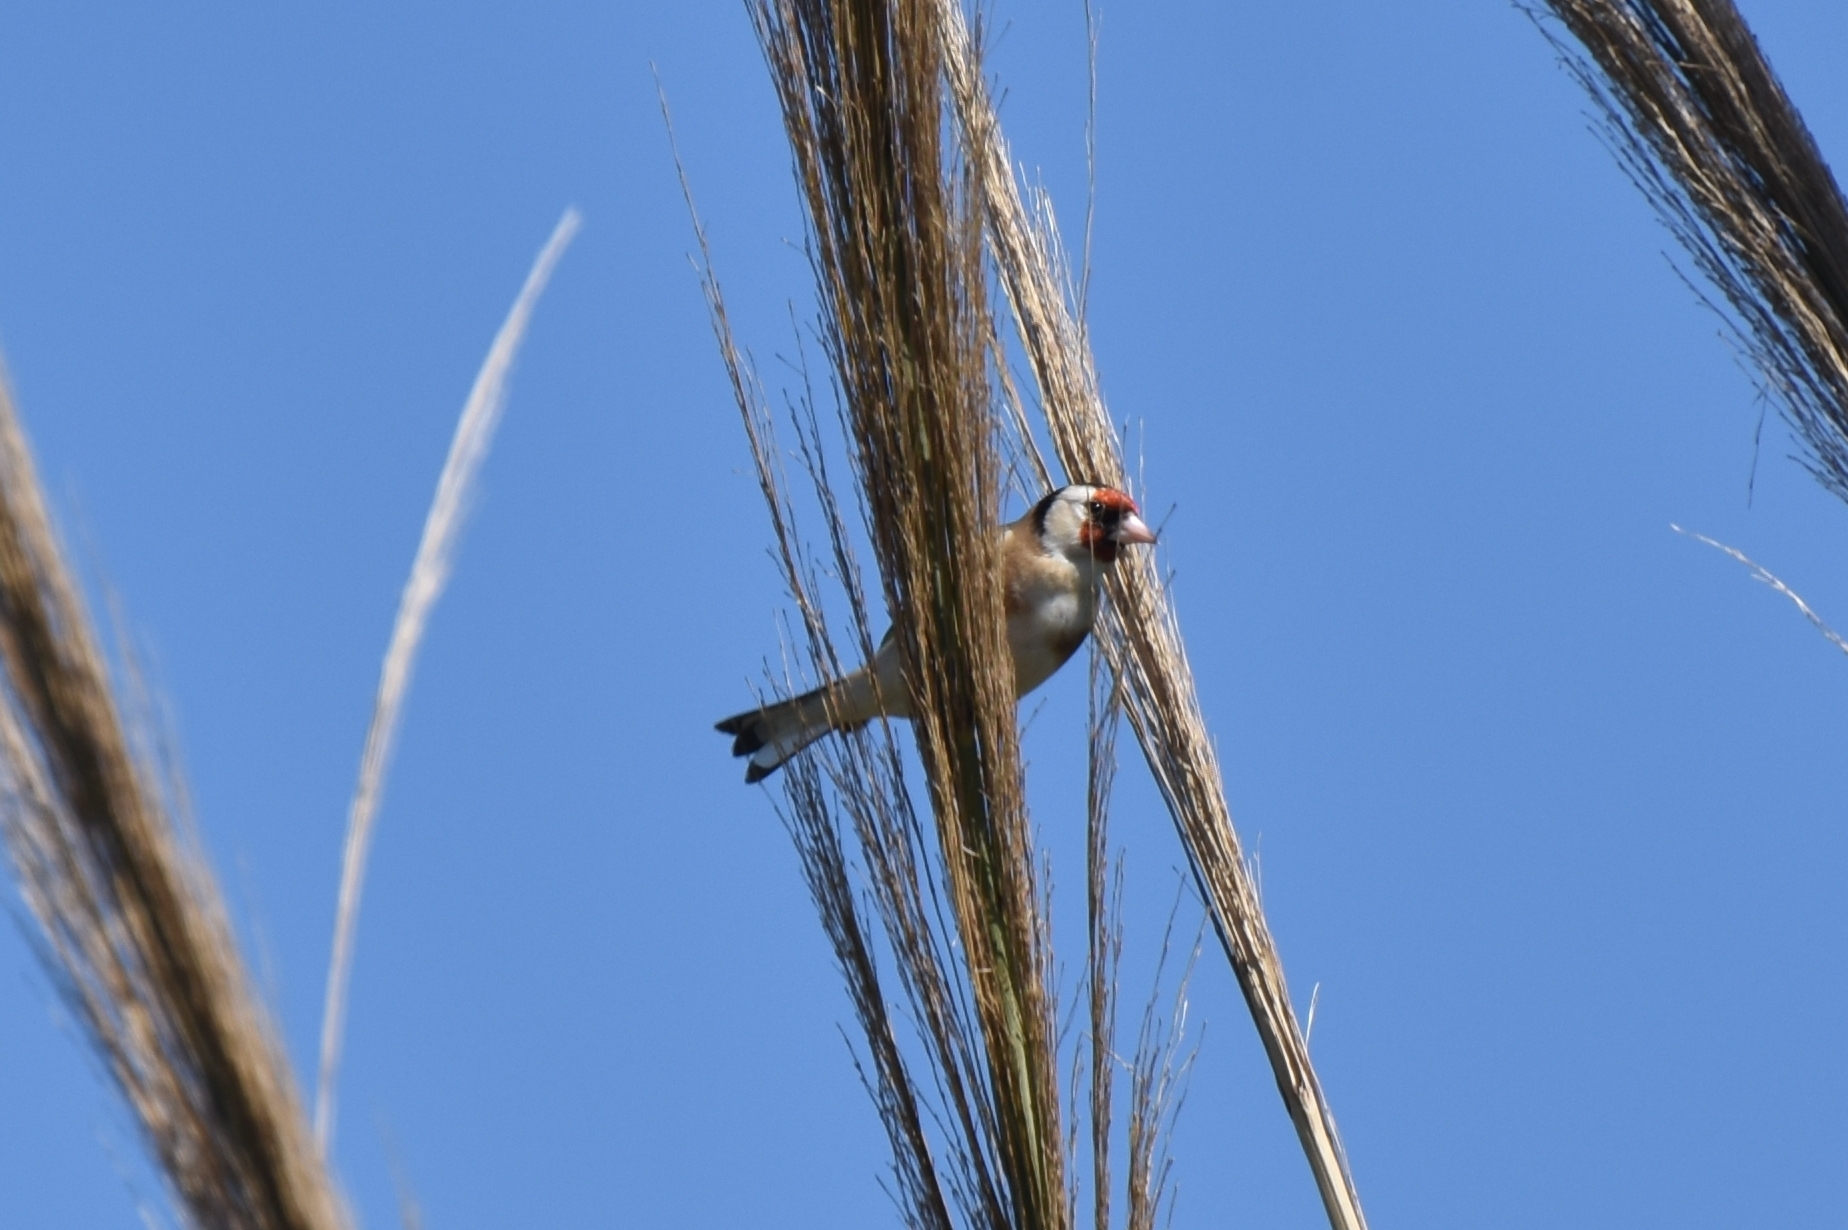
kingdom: Animalia
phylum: Chordata
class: Aves
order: Passeriformes
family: Fringillidae
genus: Carduelis
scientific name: Carduelis carduelis
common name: European goldfinch
